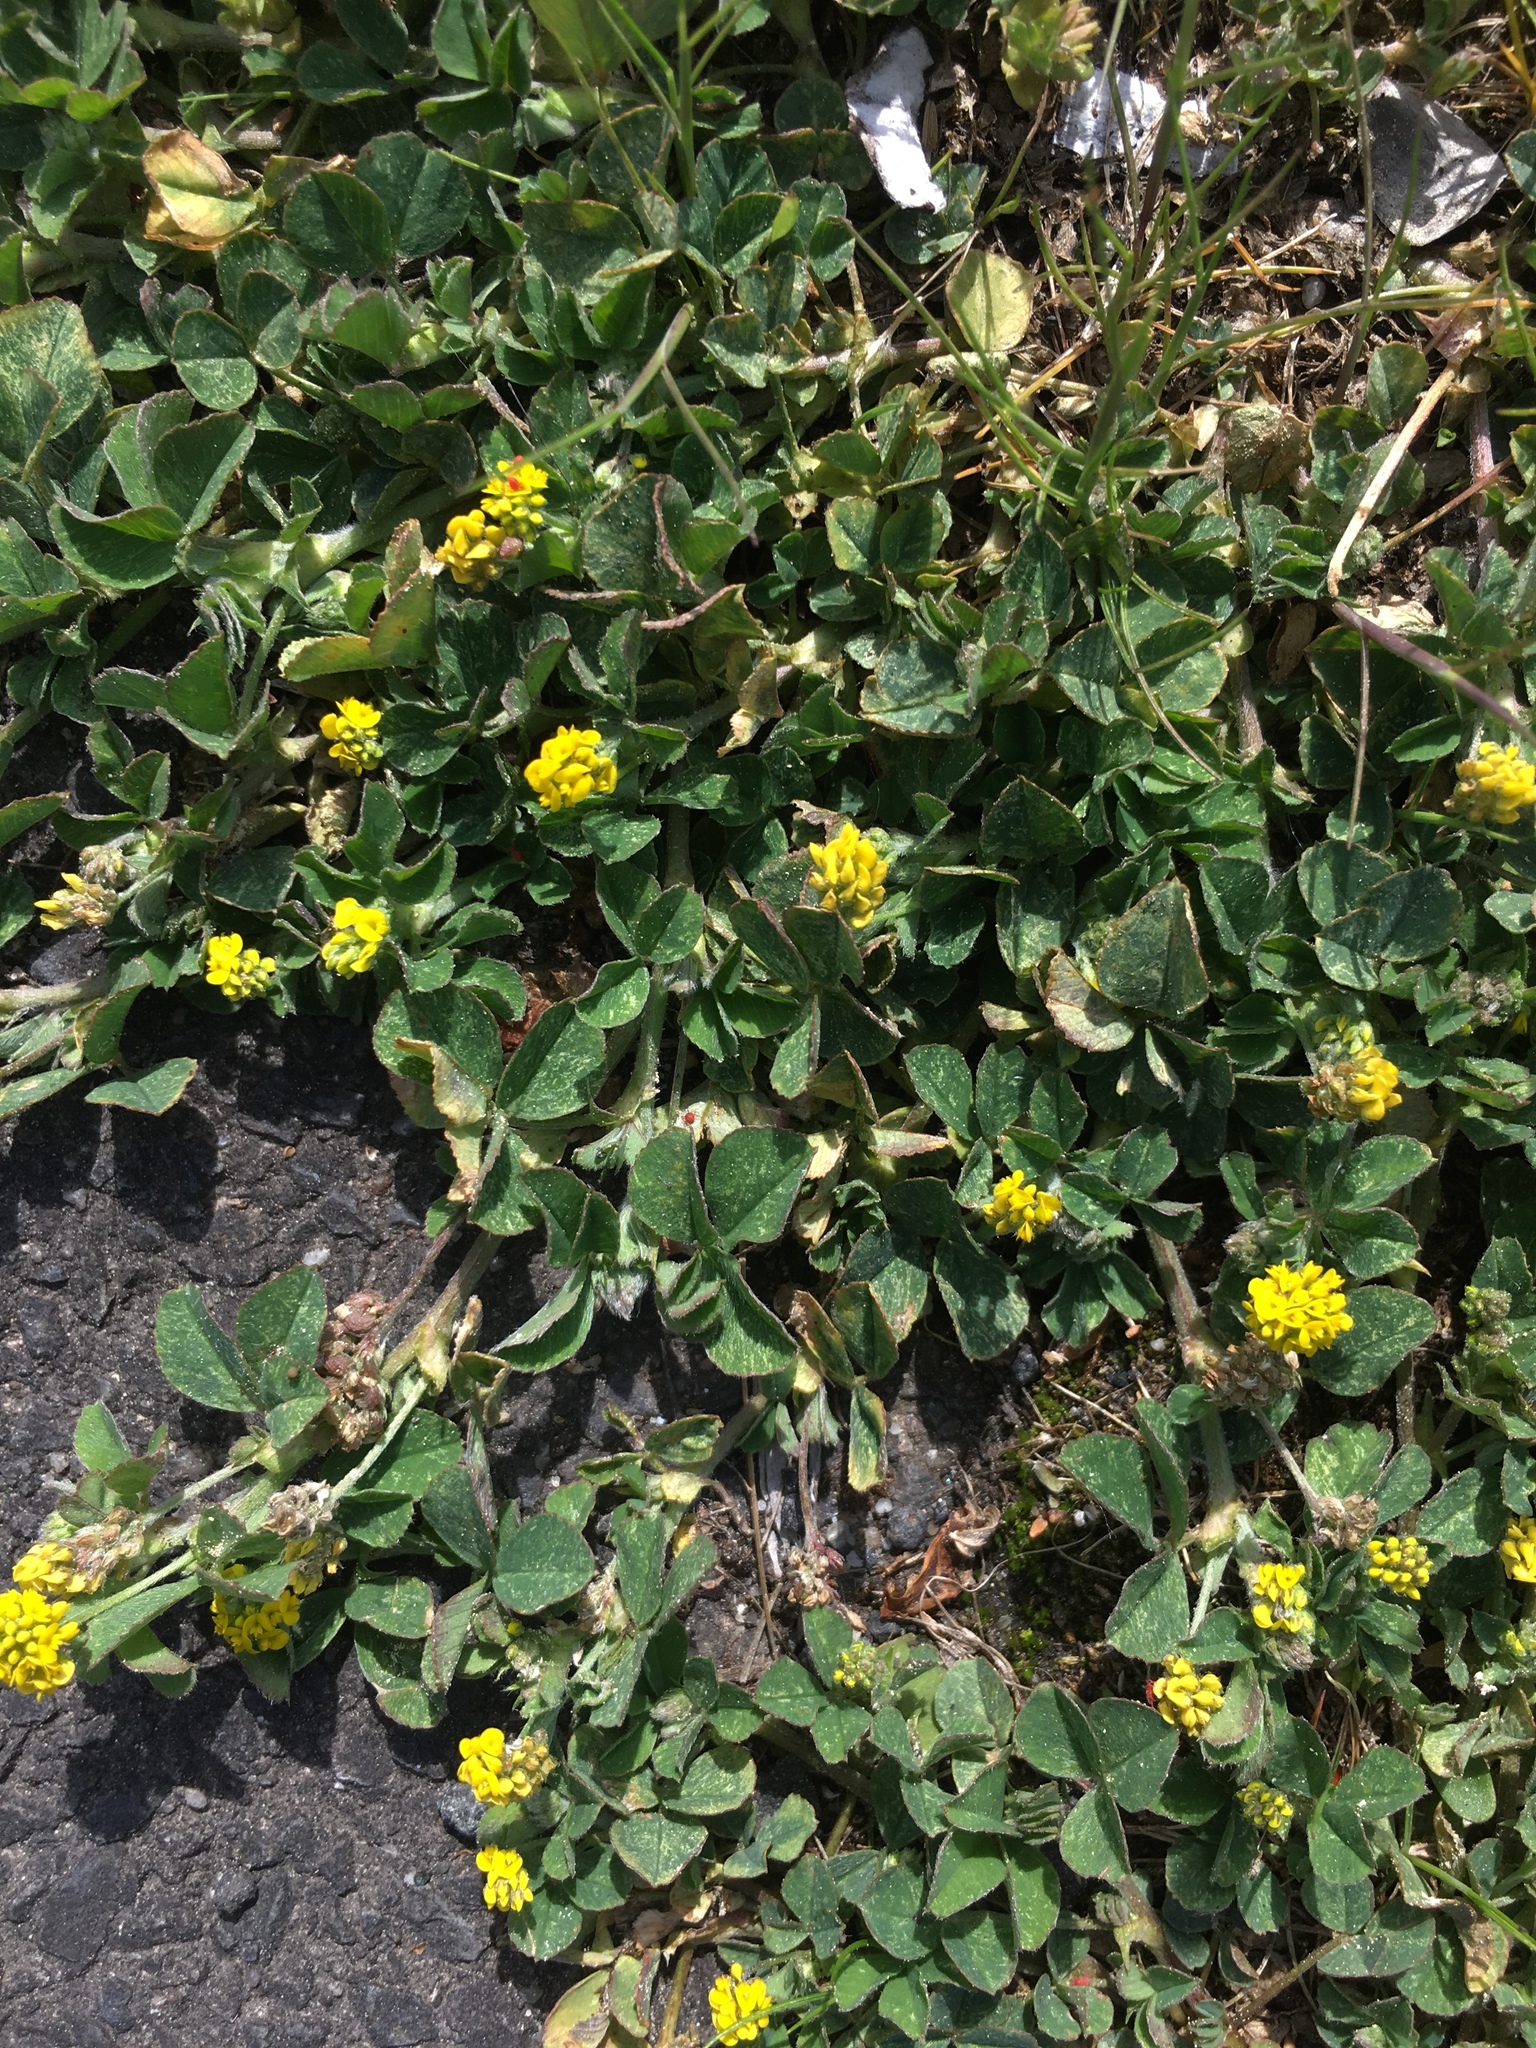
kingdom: Plantae
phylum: Tracheophyta
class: Magnoliopsida
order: Fabales
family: Fabaceae
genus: Medicago
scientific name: Medicago lupulina
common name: Black medick
